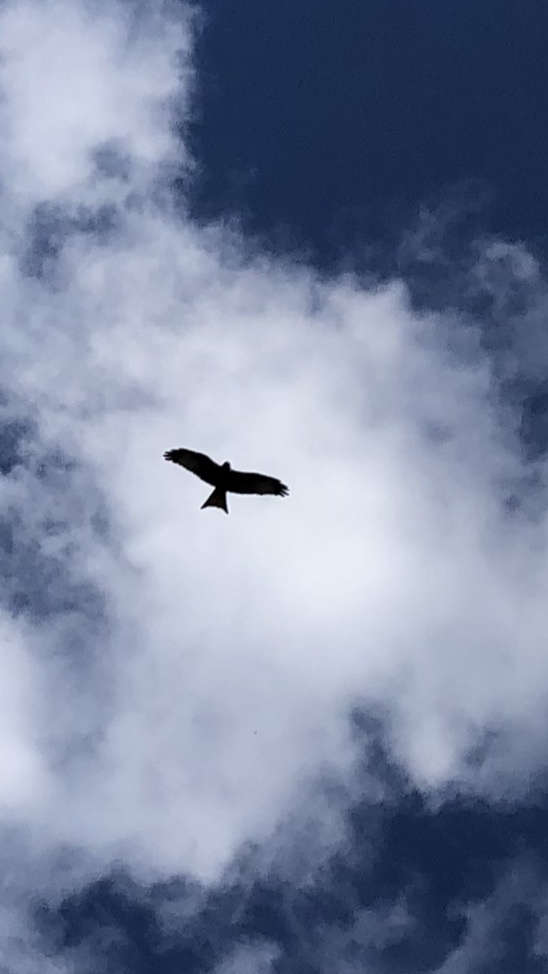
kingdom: Animalia
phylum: Chordata
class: Aves
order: Accipitriformes
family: Accipitridae
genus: Milvus
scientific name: Milvus milvus
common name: Red kite
